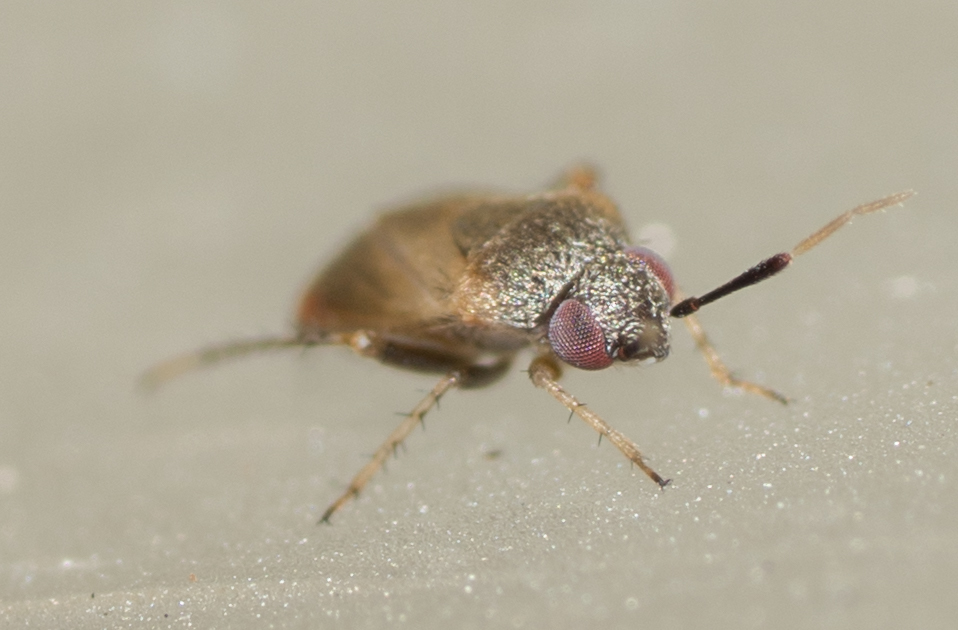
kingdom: Animalia
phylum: Arthropoda
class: Insecta
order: Hemiptera
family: Miridae
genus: Rhinacloa
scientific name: Rhinacloa forticornis
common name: Brown cotton mirid
